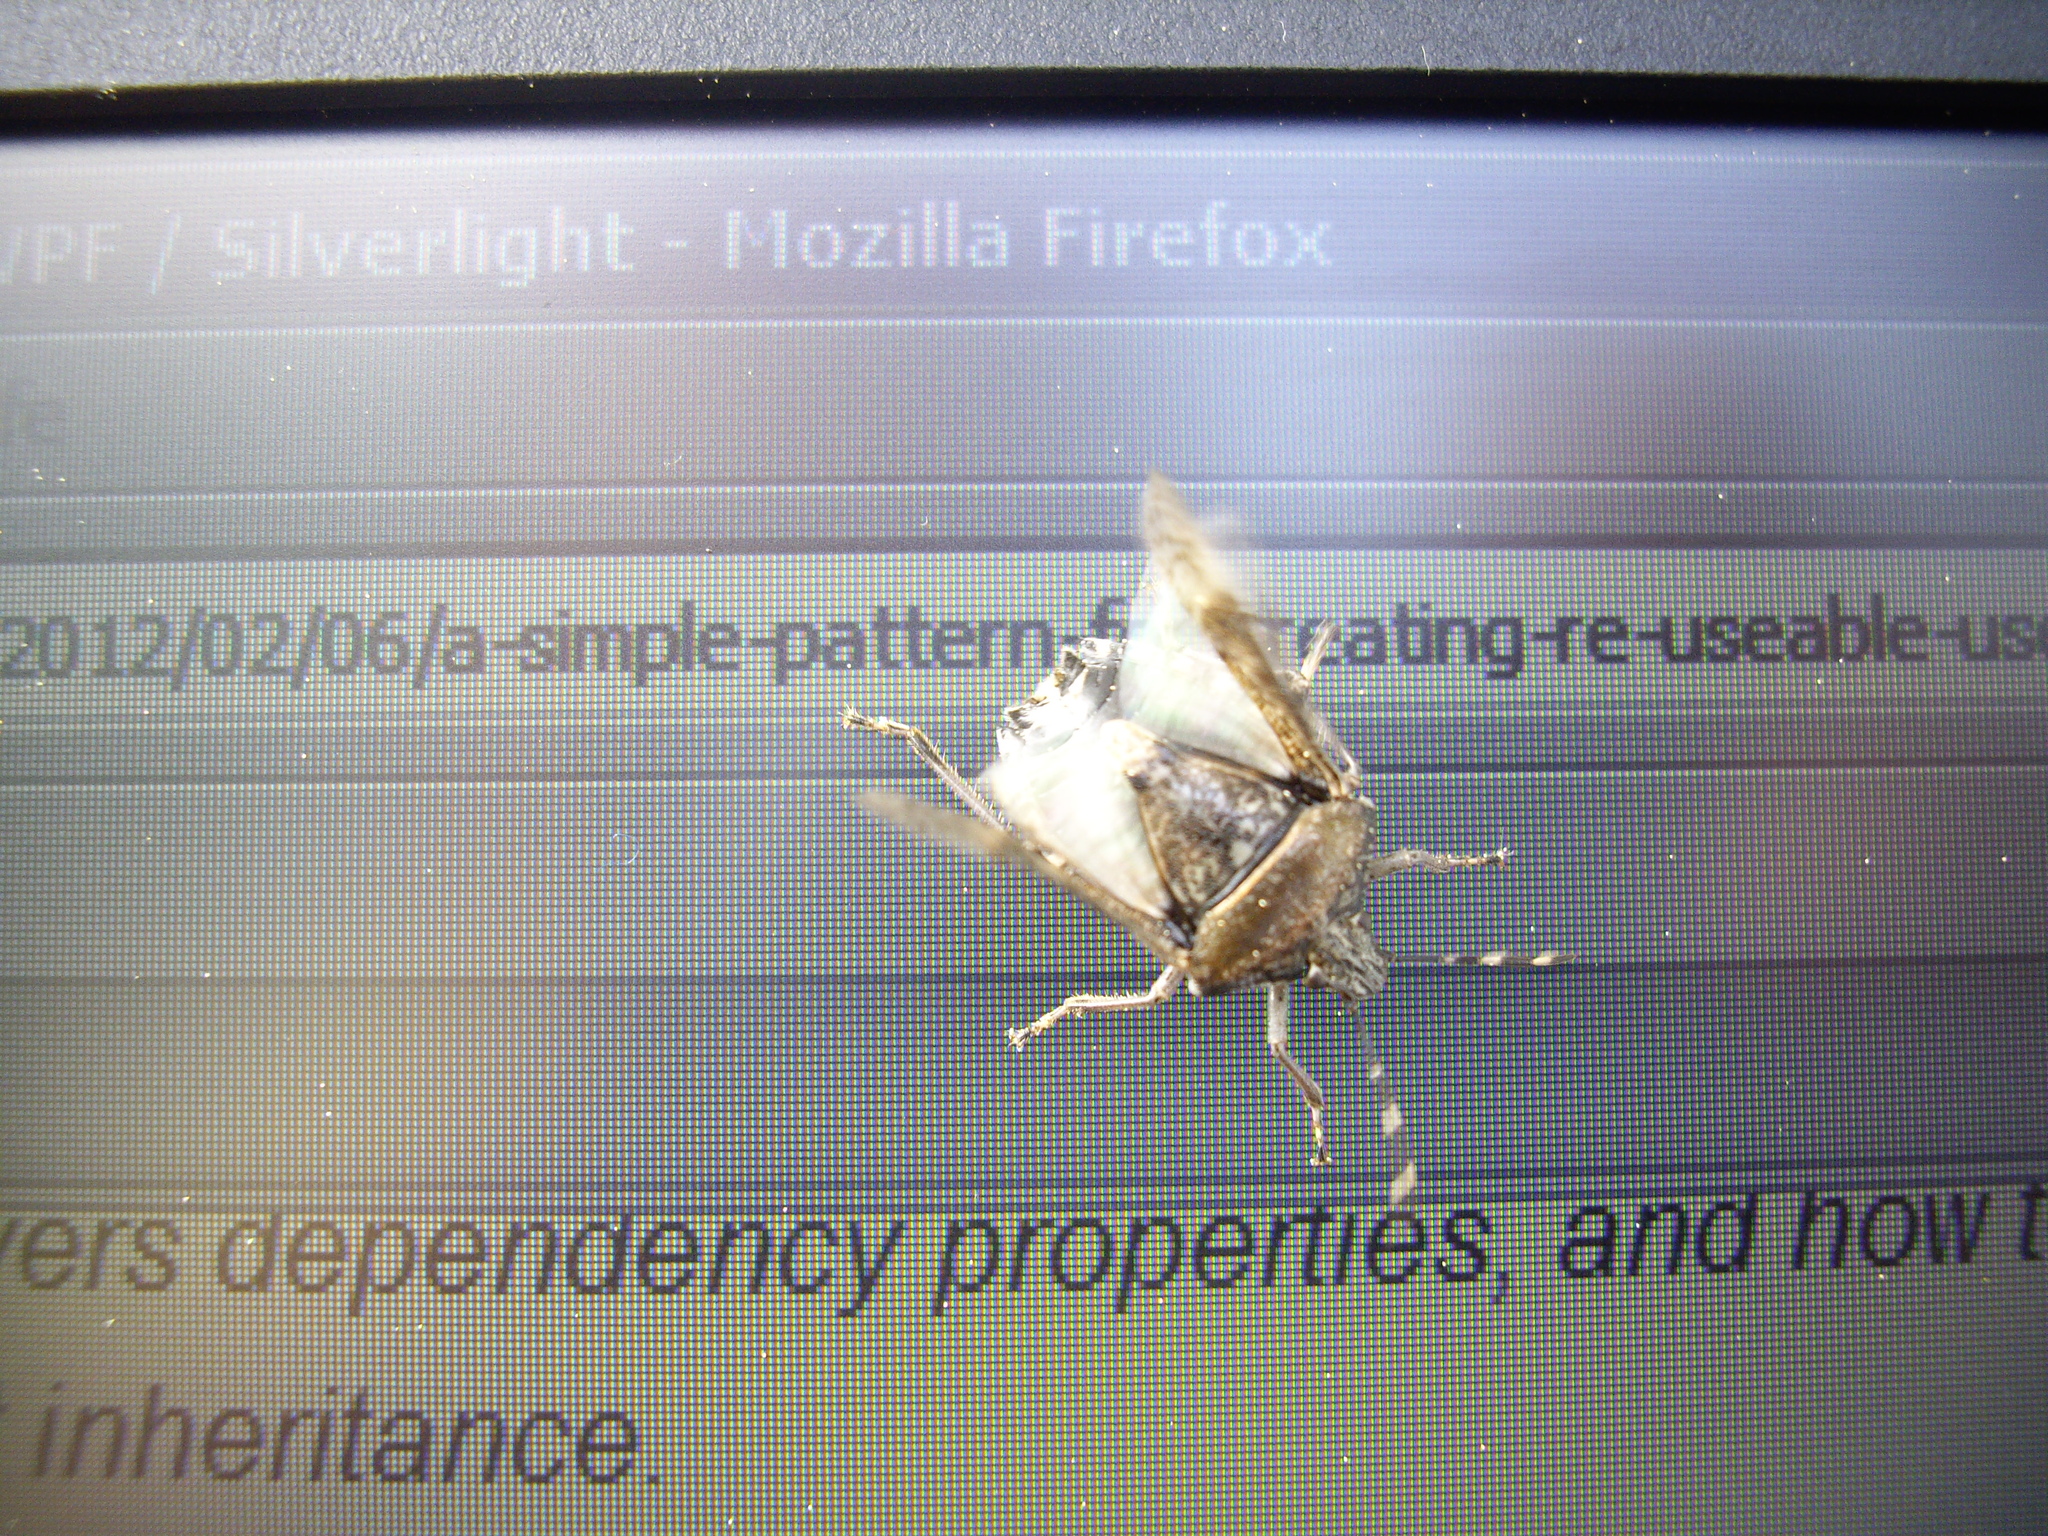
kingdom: Animalia
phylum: Arthropoda
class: Insecta
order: Hemiptera
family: Pentatomidae
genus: Rhaphigaster
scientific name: Rhaphigaster nebulosa
